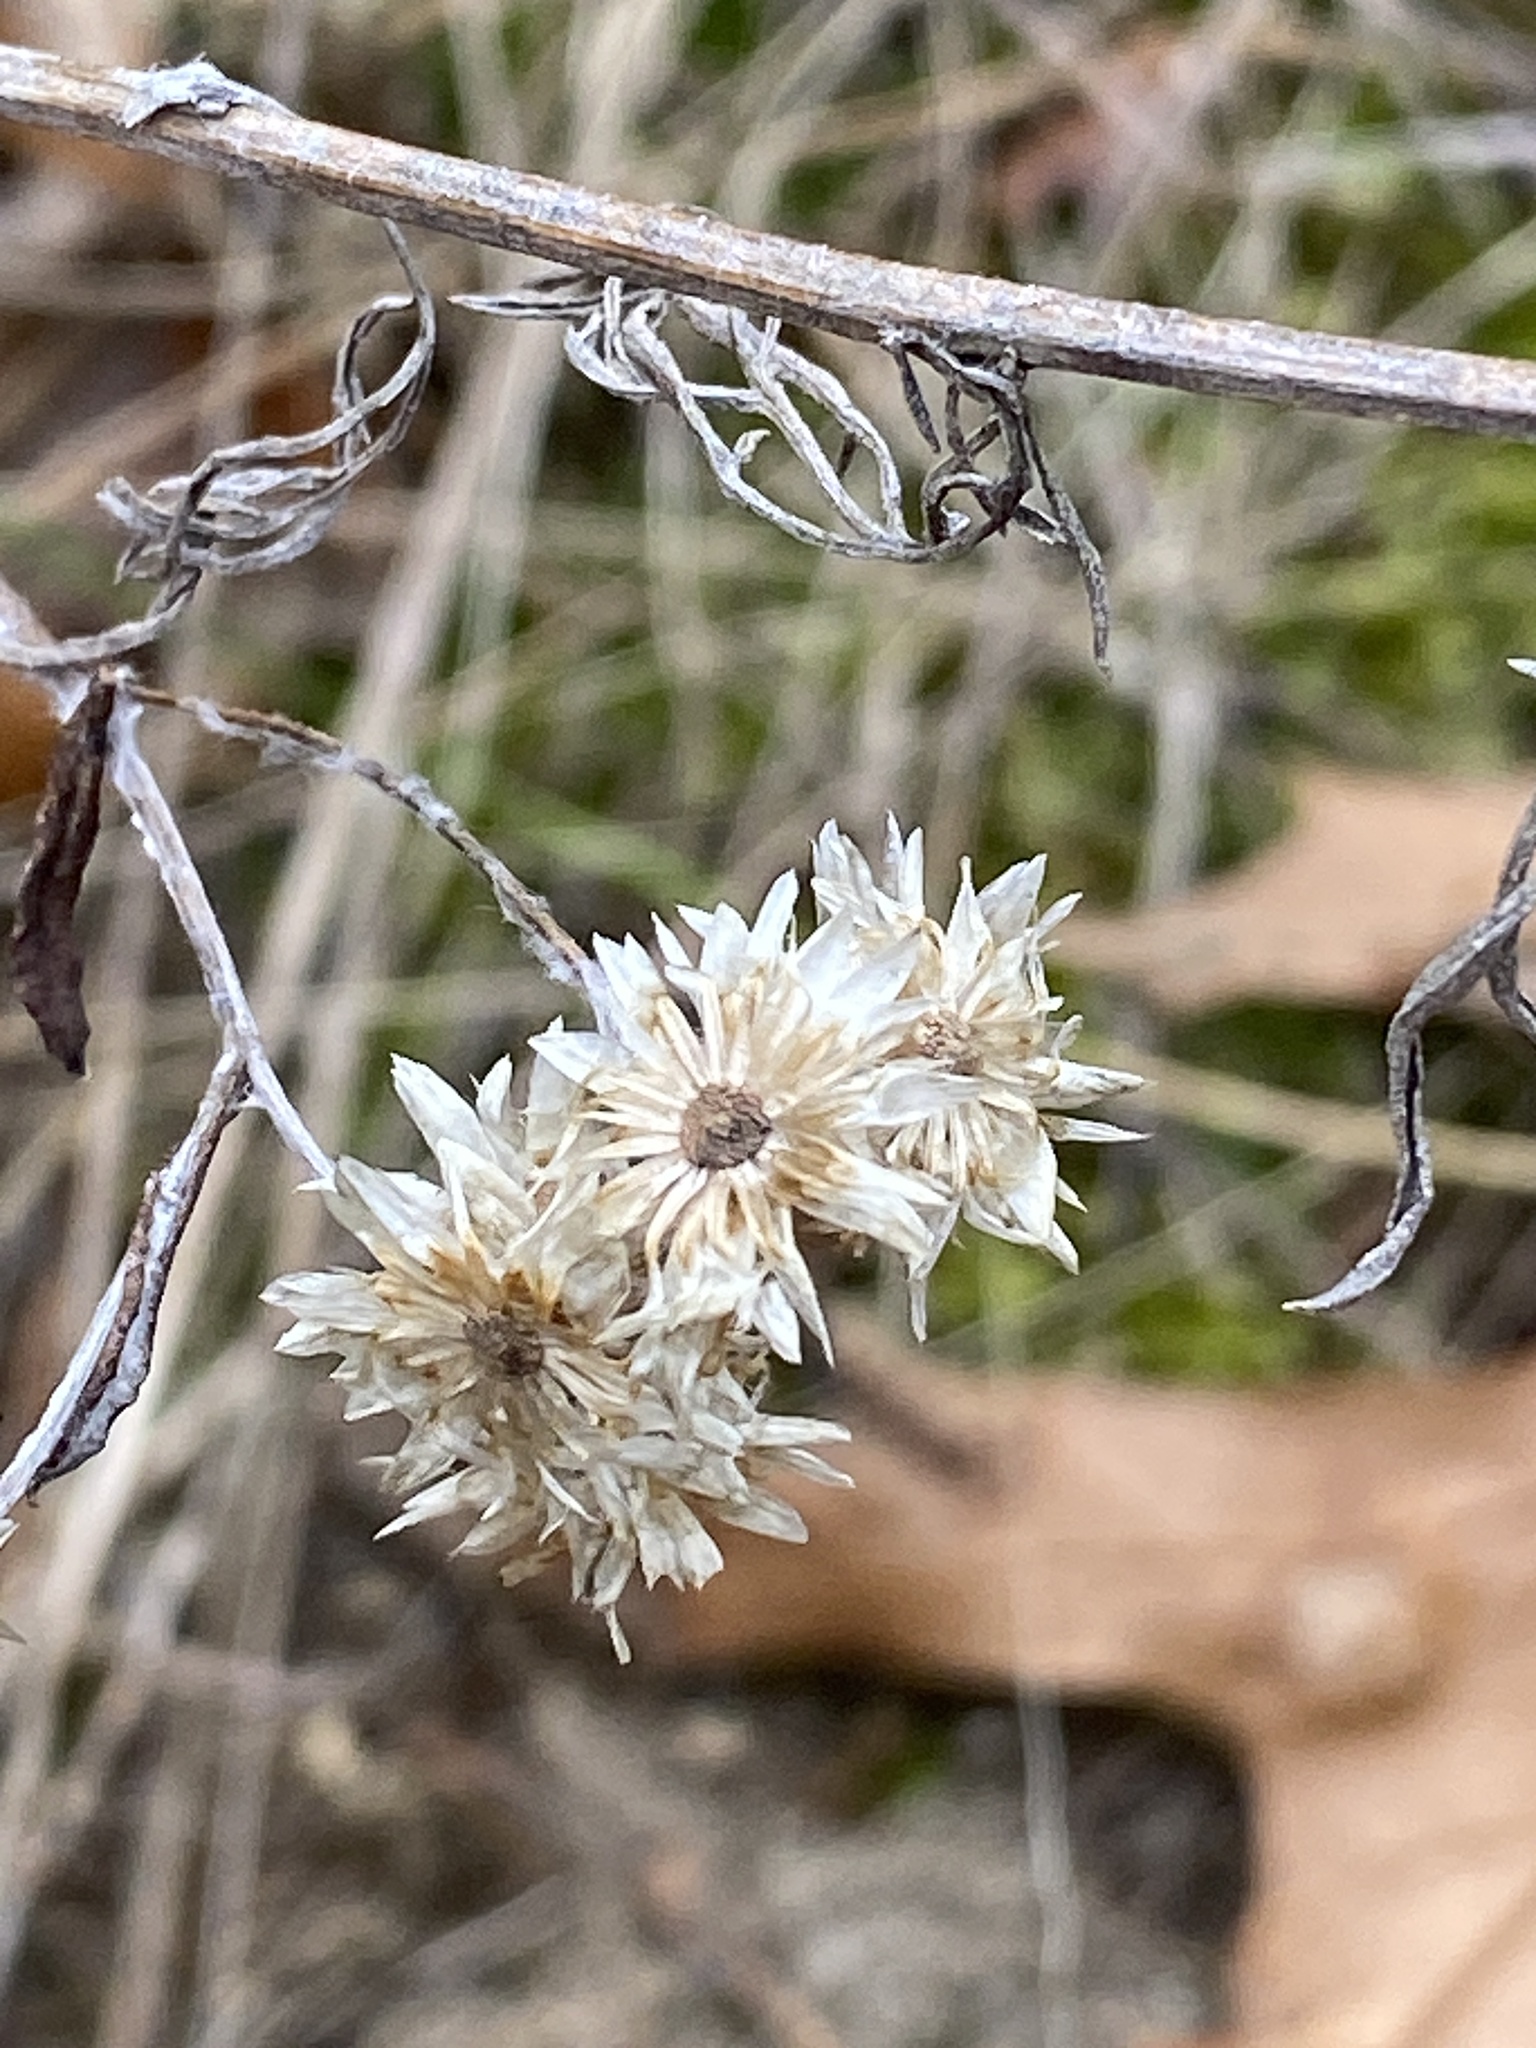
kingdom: Plantae
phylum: Tracheophyta
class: Magnoliopsida
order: Asterales
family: Asteraceae
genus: Pseudognaphalium
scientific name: Pseudognaphalium obtusifolium
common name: Eastern rabbit-tobacco
